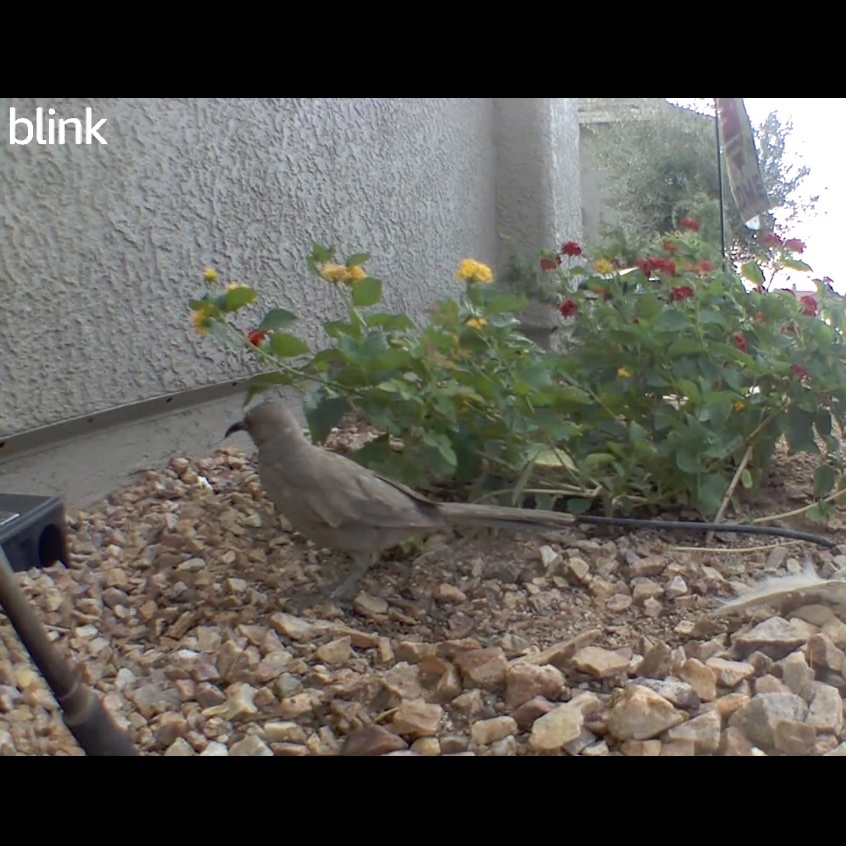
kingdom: Animalia
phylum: Chordata
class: Aves
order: Passeriformes
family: Mimidae
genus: Toxostoma
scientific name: Toxostoma curvirostre
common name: Curve-billed thrasher
